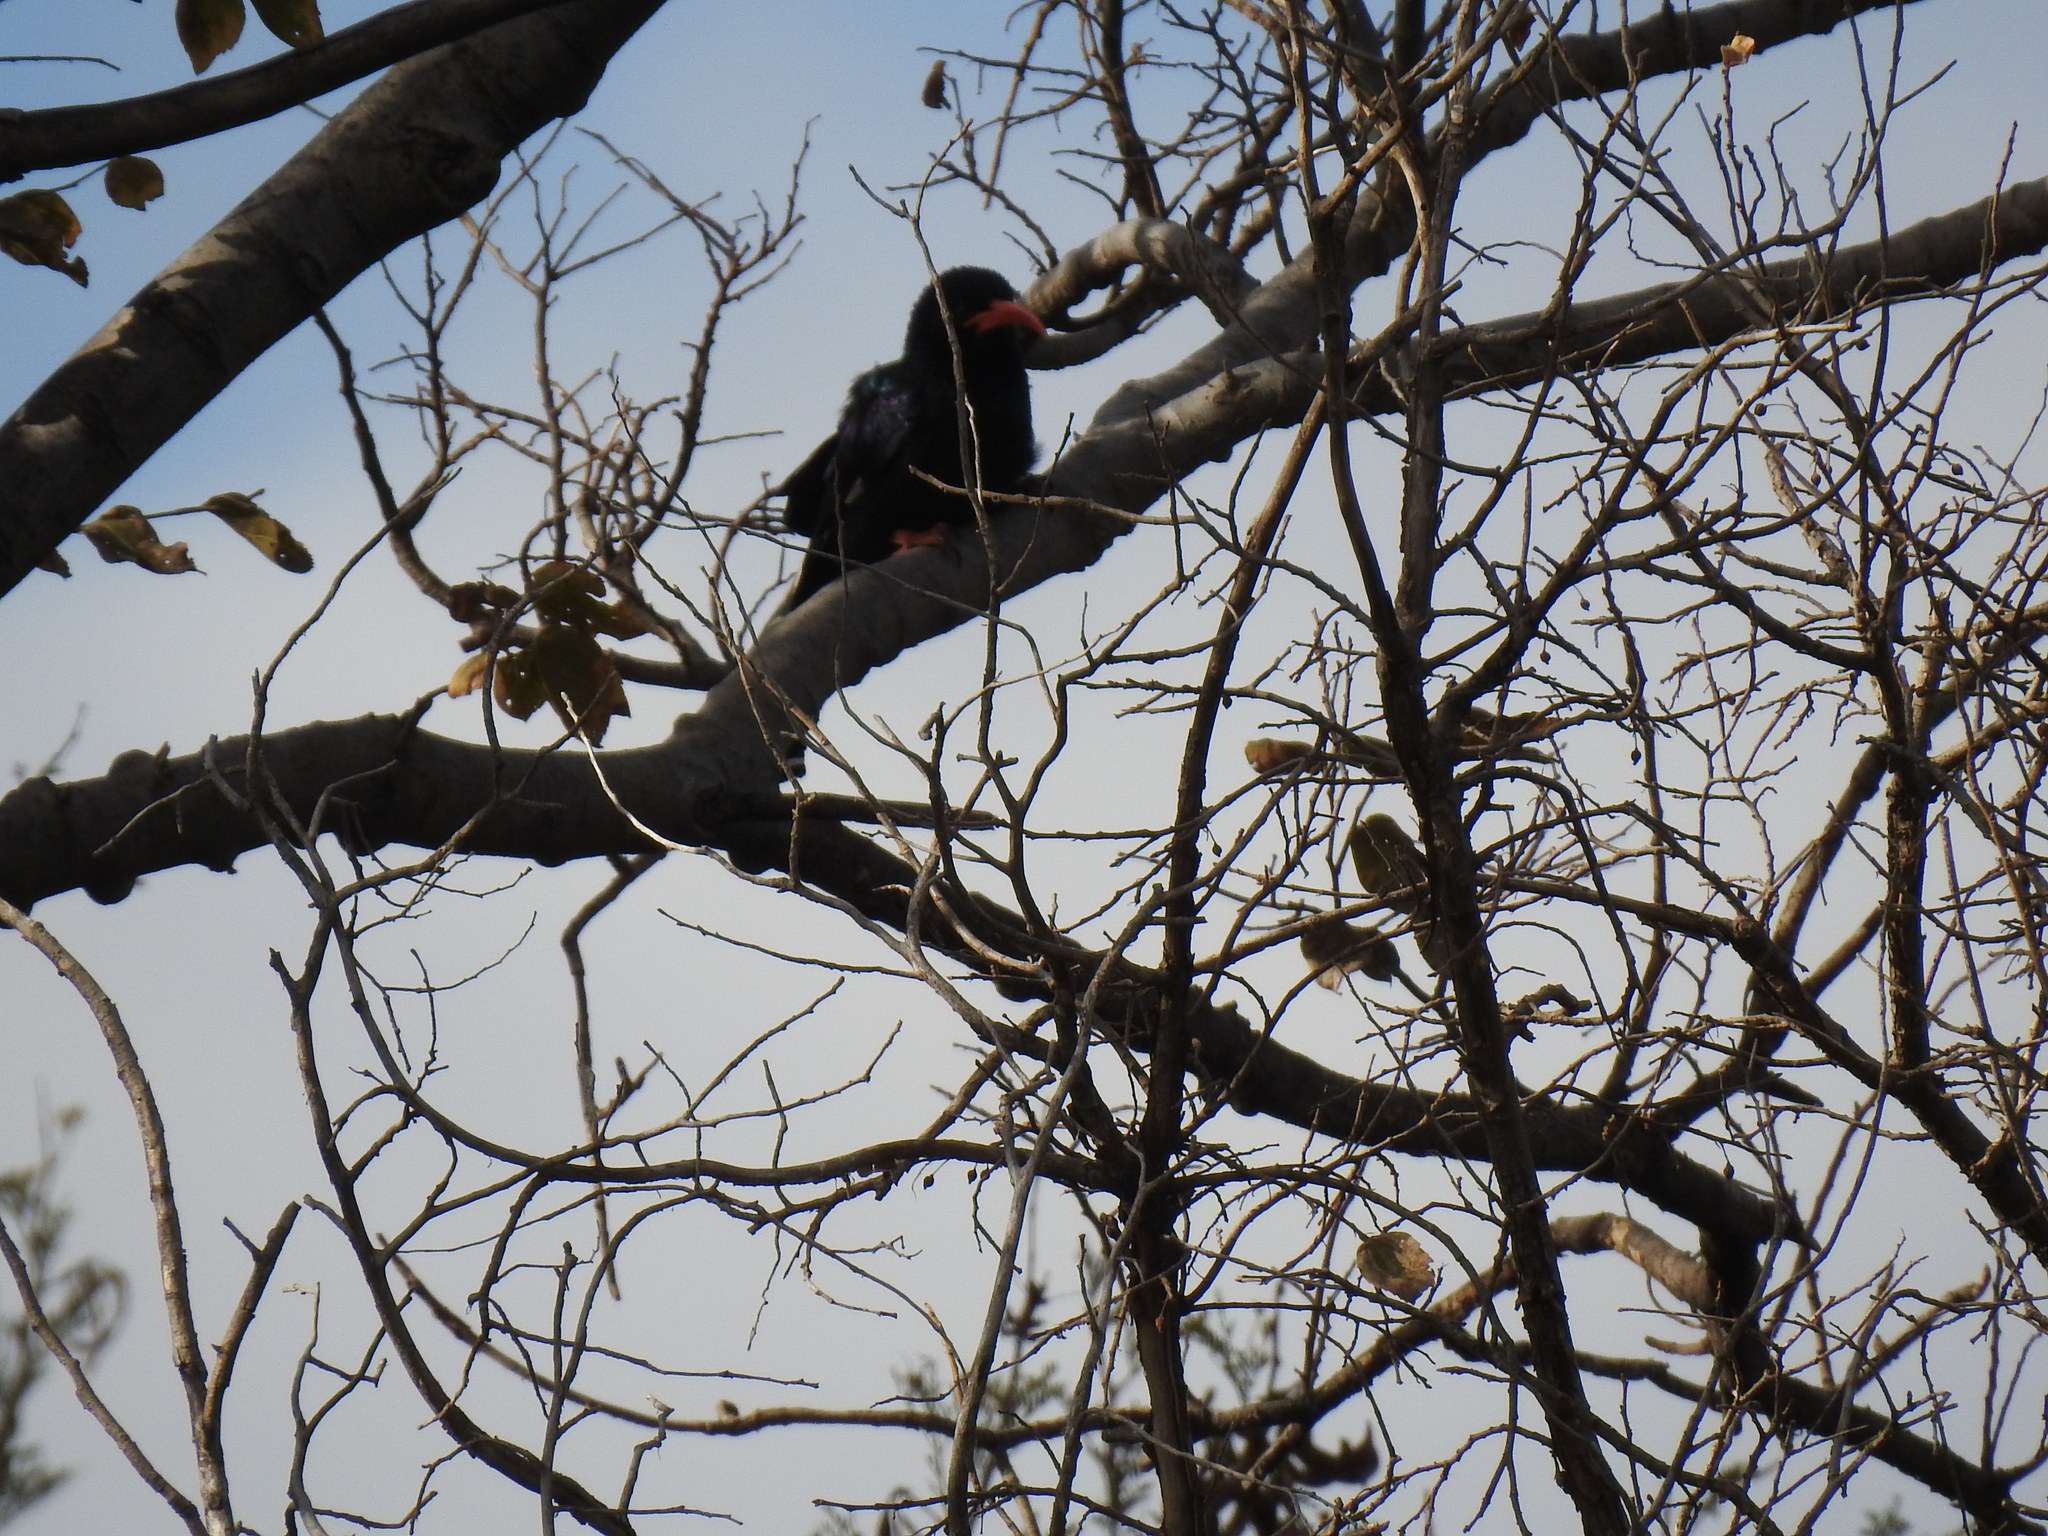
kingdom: Animalia
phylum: Chordata
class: Aves
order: Bucerotiformes
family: Phoeniculidae
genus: Phoeniculus
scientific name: Phoeniculus purpureus
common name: Green woodhoopoe
